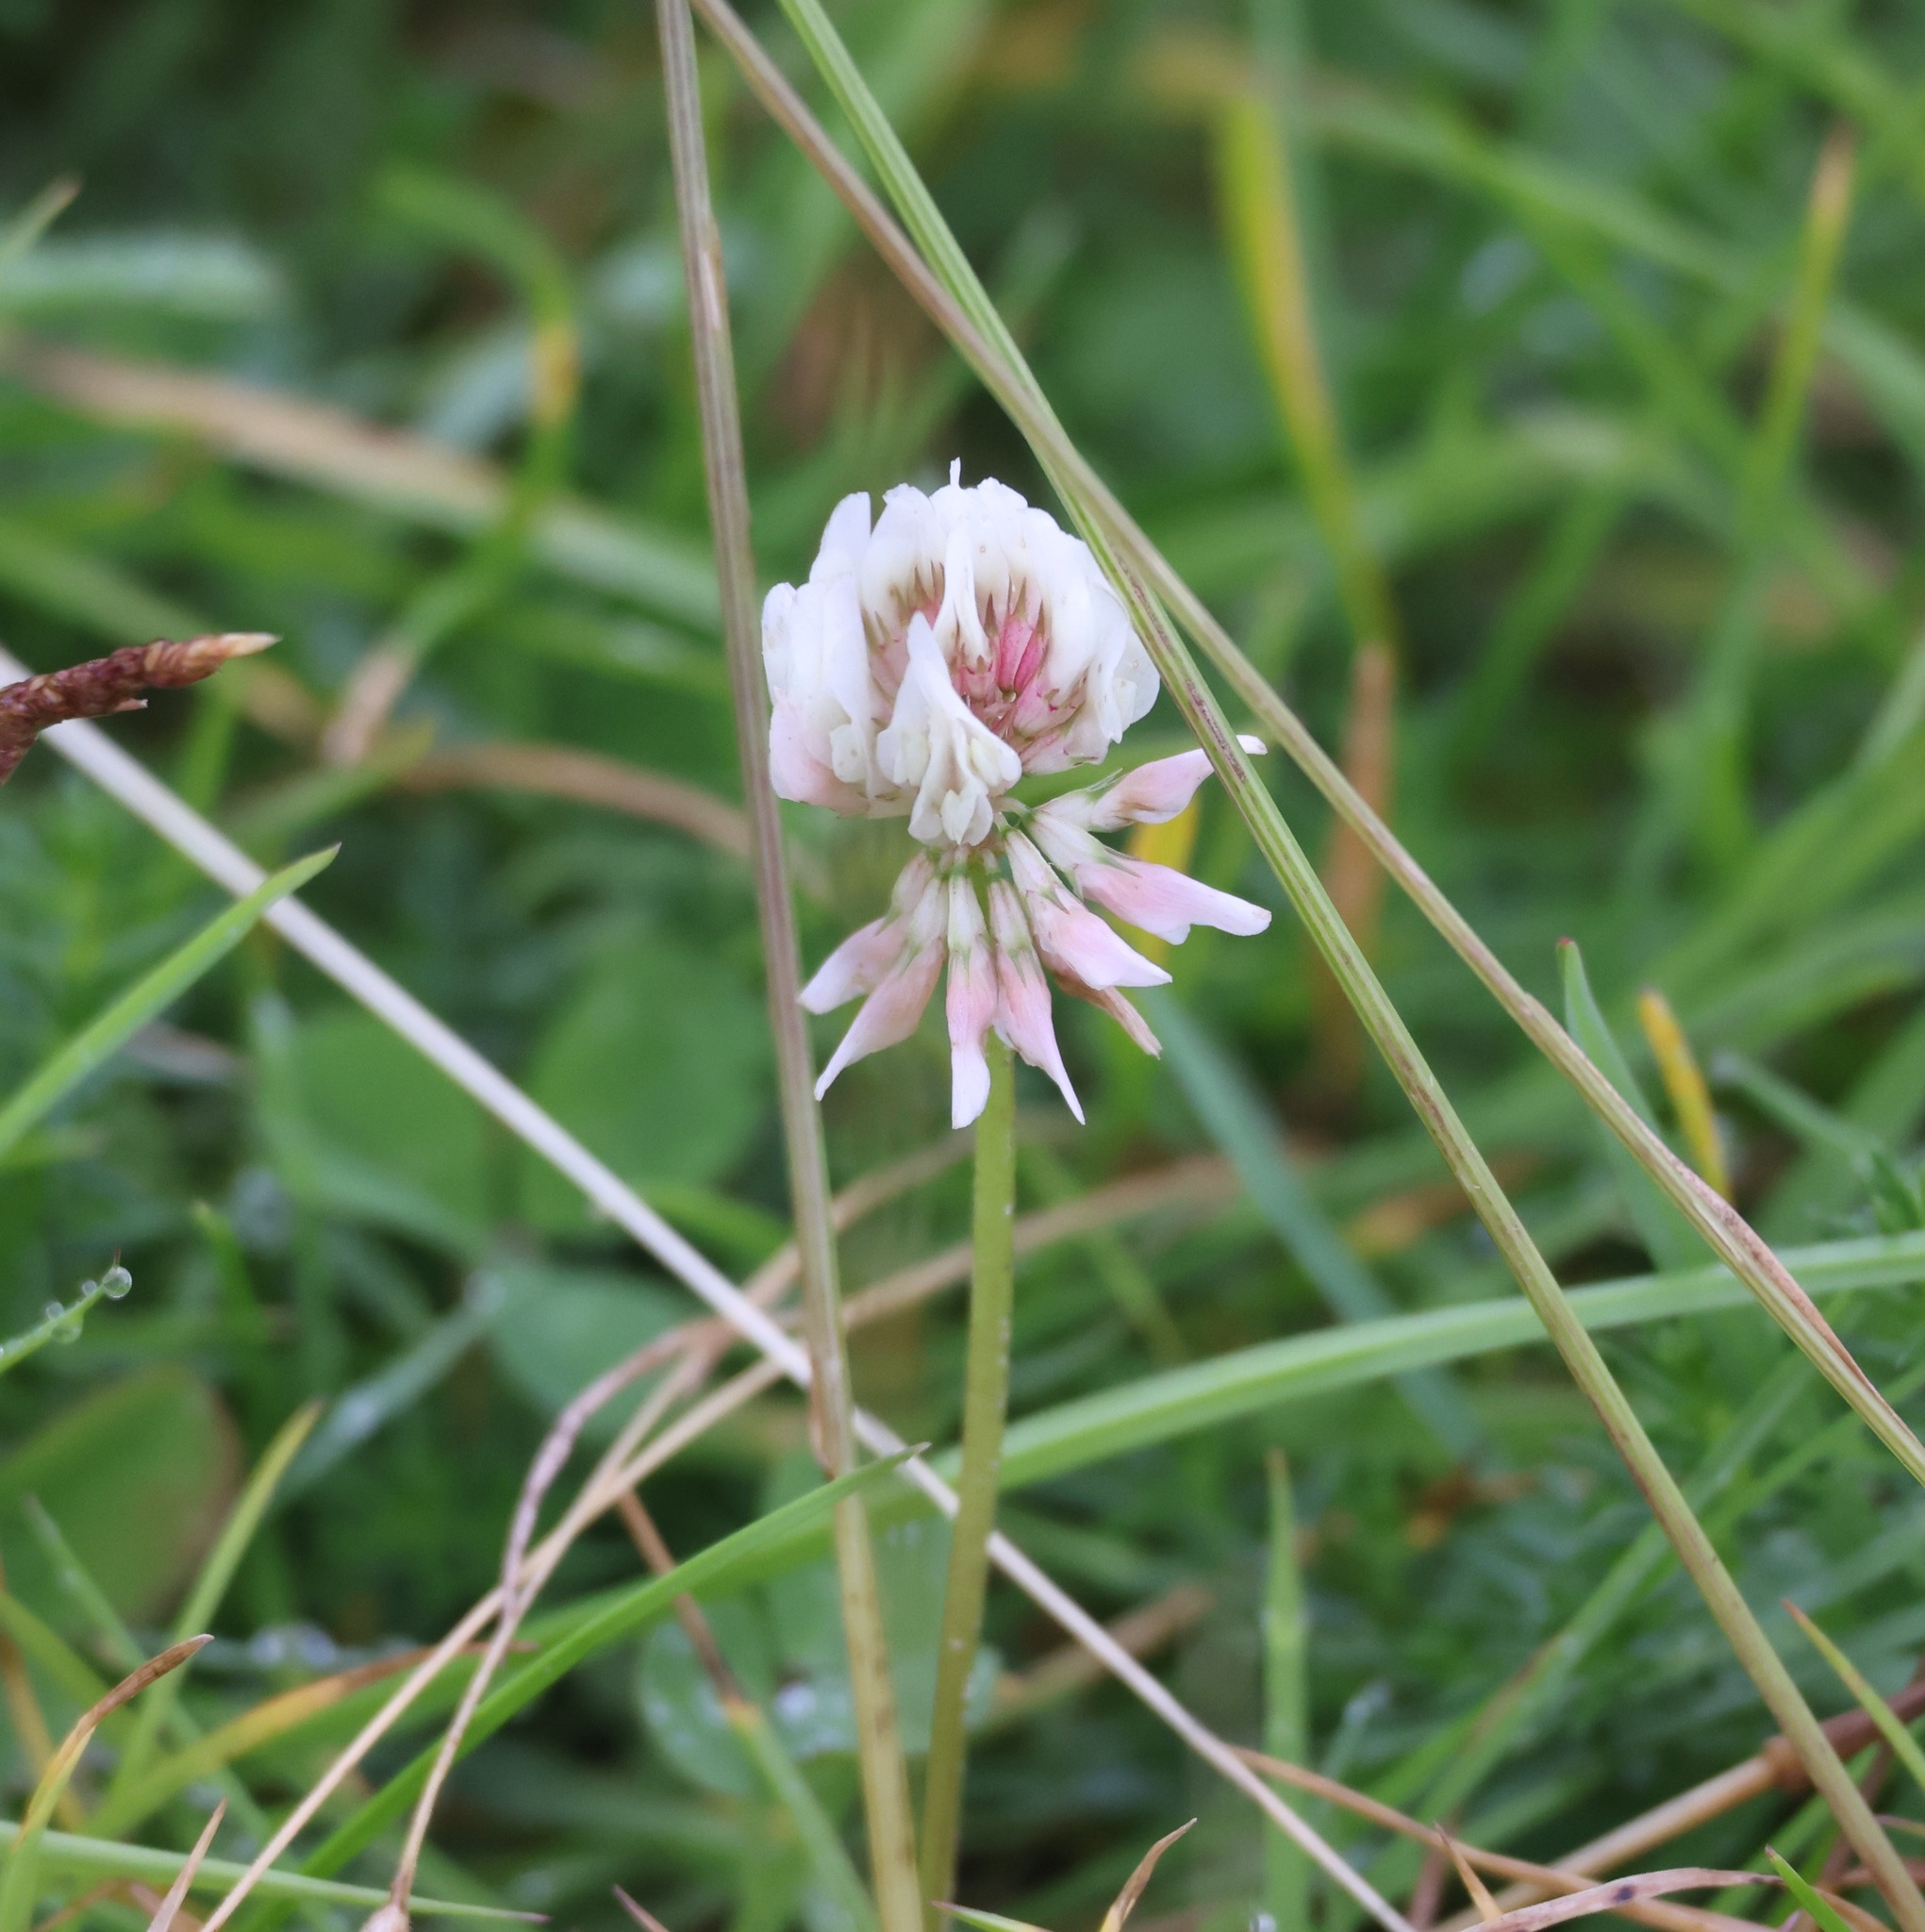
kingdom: Plantae
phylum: Tracheophyta
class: Magnoliopsida
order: Fabales
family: Fabaceae
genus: Trifolium
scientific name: Trifolium repens
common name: White clover
